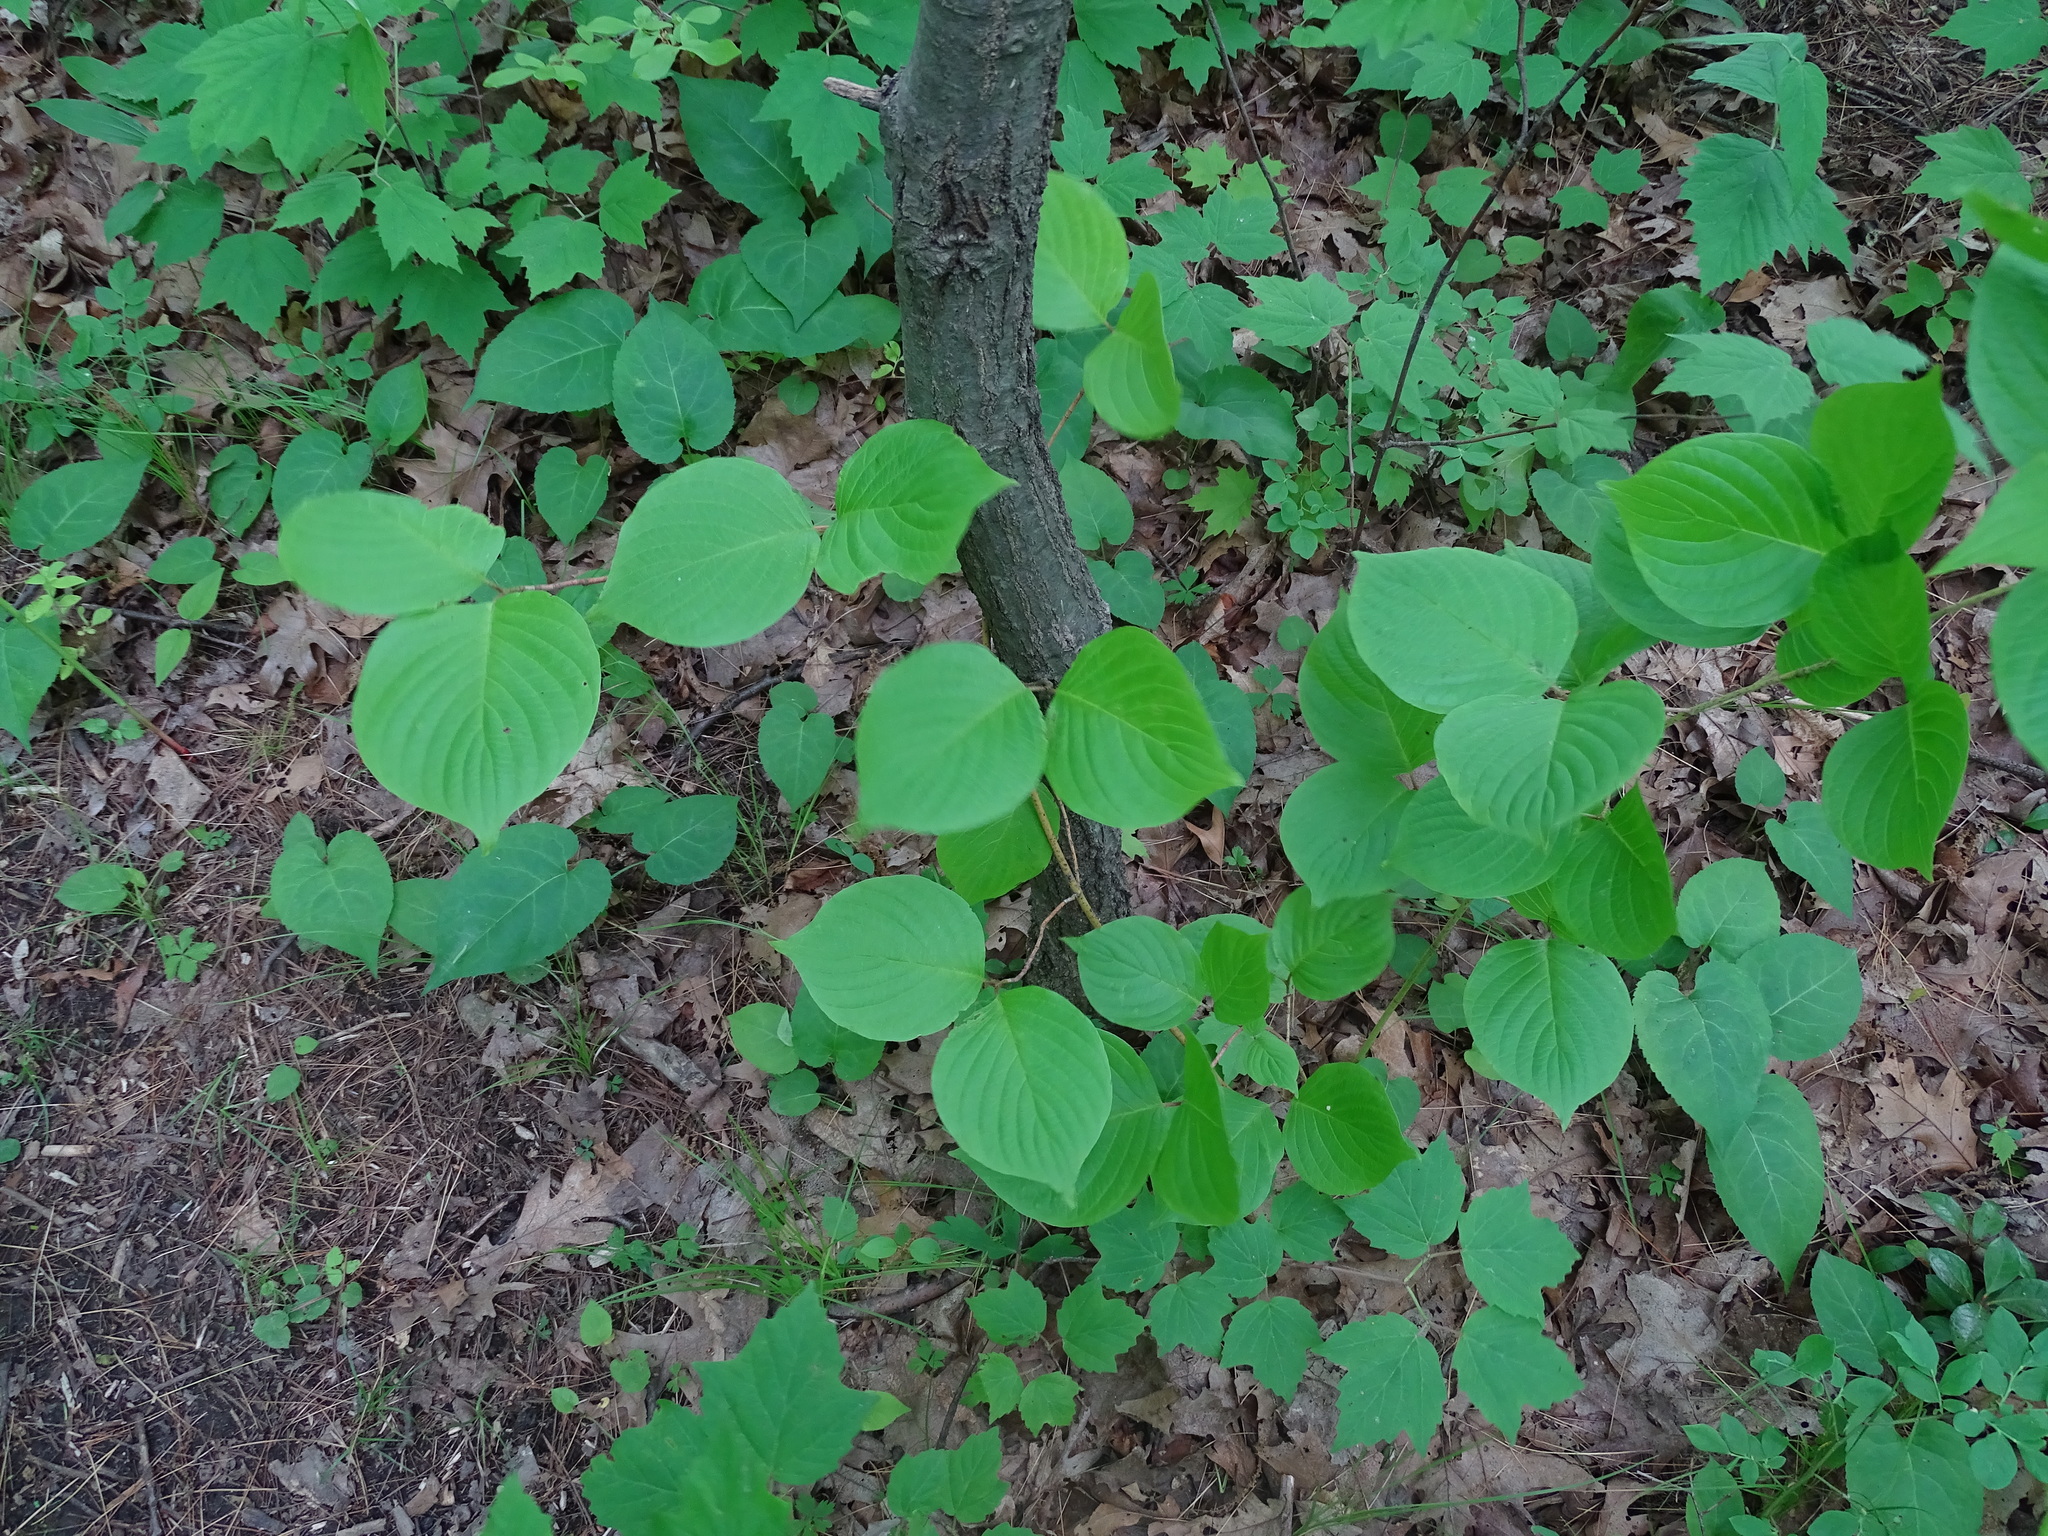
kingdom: Plantae
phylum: Tracheophyta
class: Magnoliopsida
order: Cornales
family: Cornaceae
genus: Cornus
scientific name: Cornus rugosa
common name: Round-leaf dogwood
